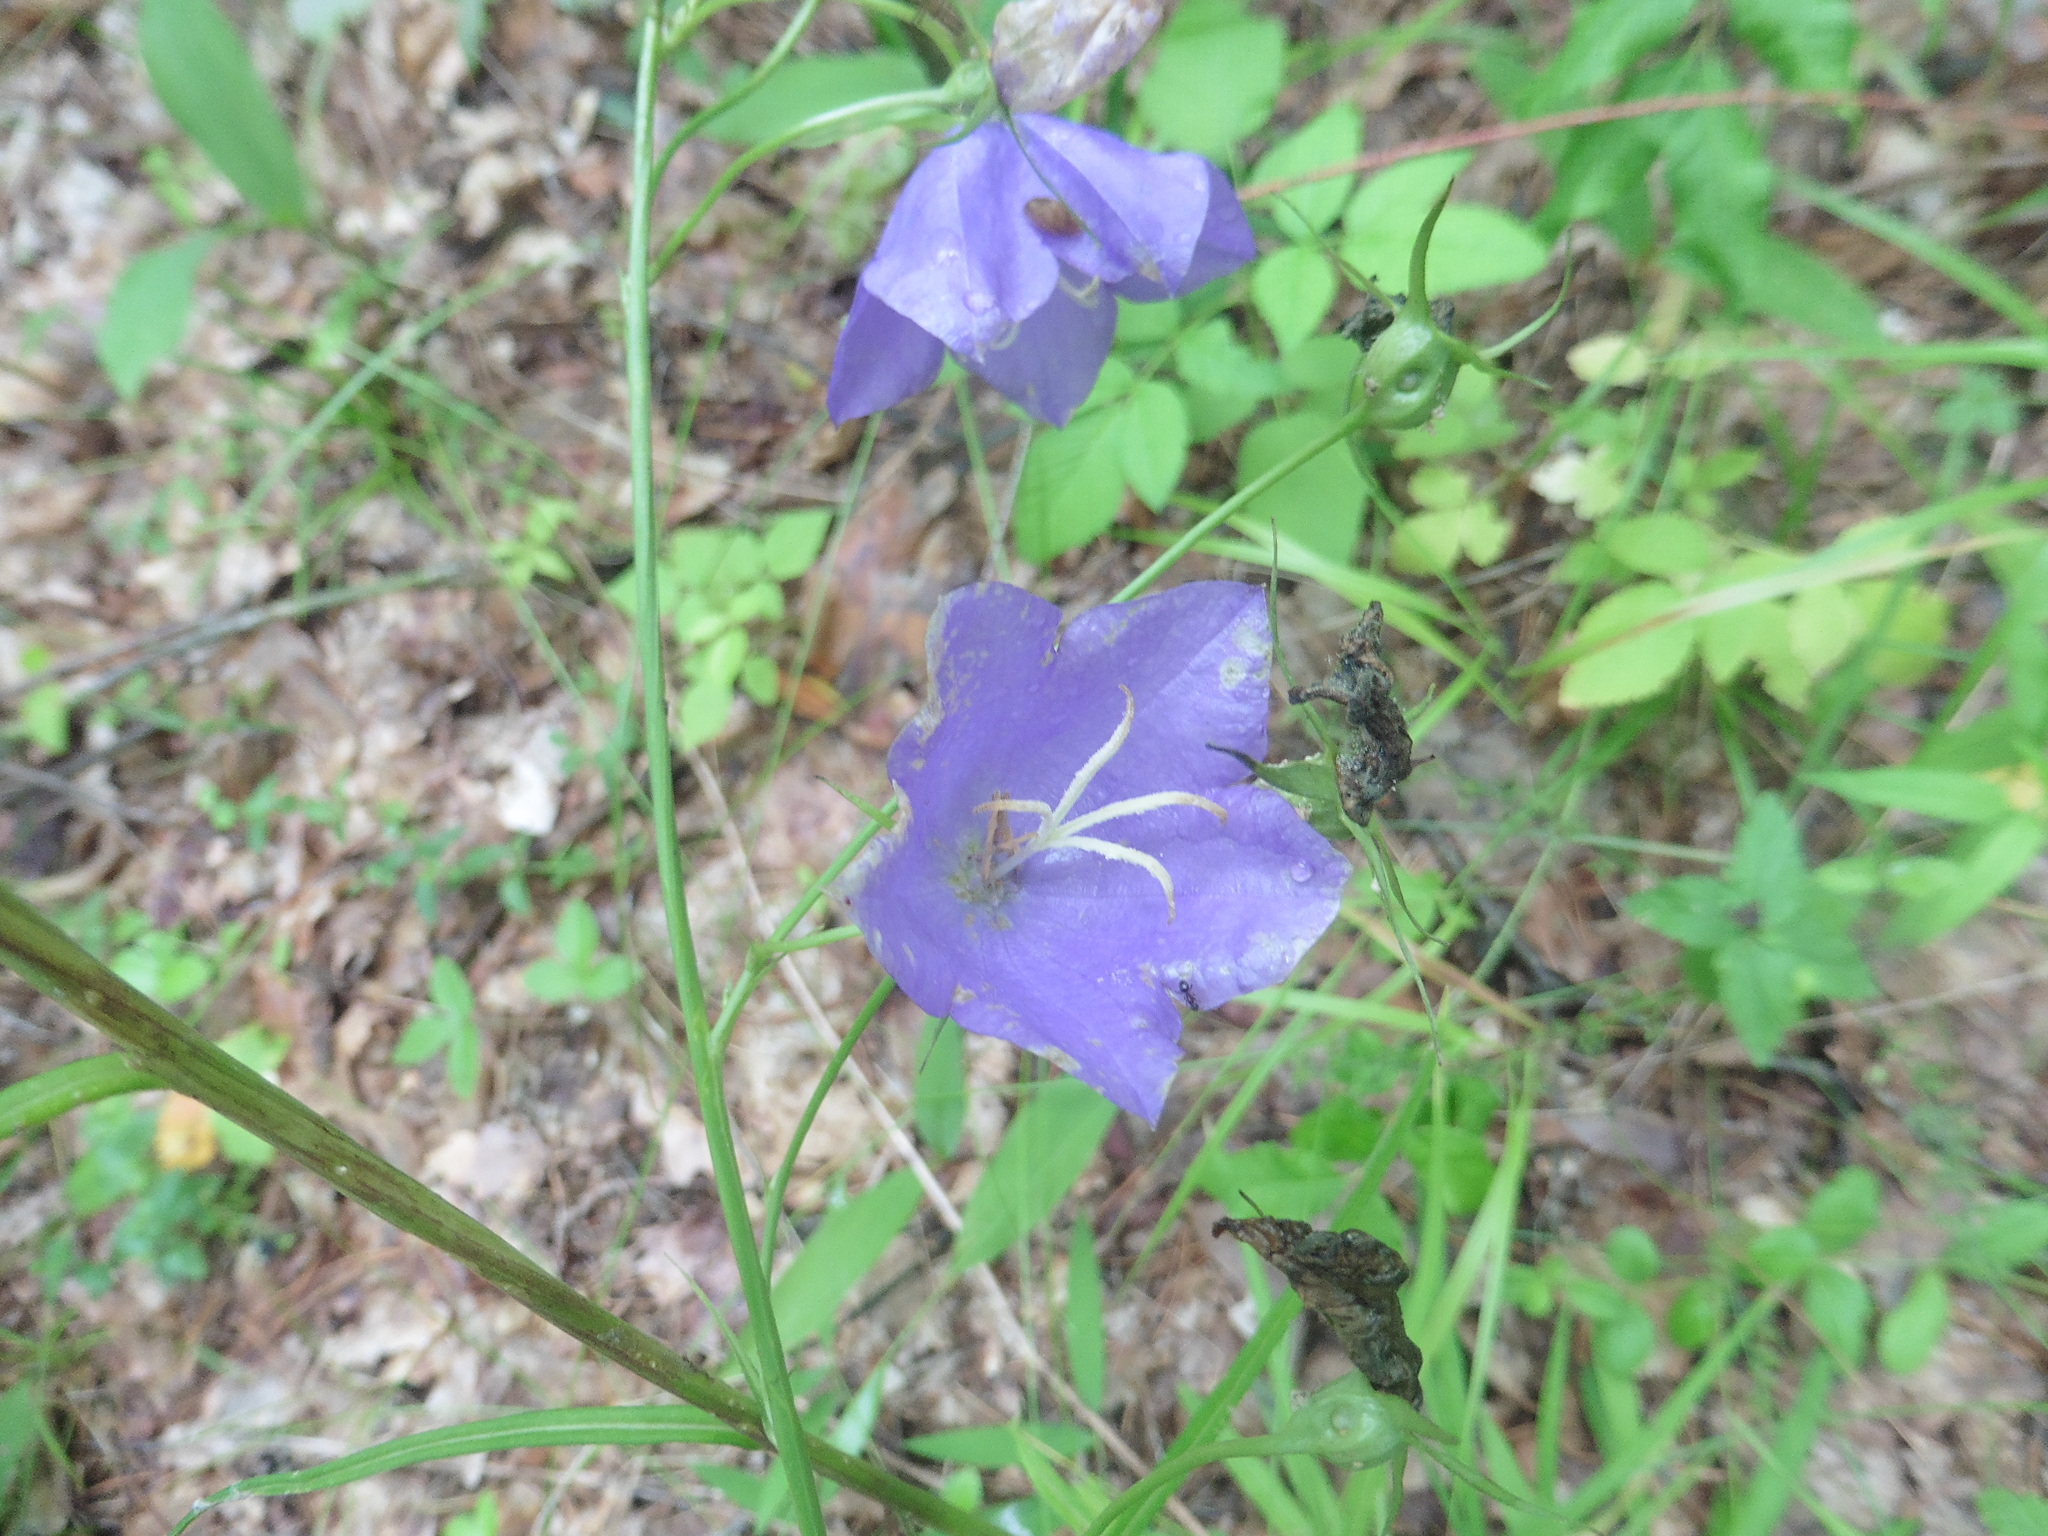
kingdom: Plantae
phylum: Tracheophyta
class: Magnoliopsida
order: Asterales
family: Campanulaceae
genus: Campanula
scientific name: Campanula persicifolia
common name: Peach-leaved bellflower
